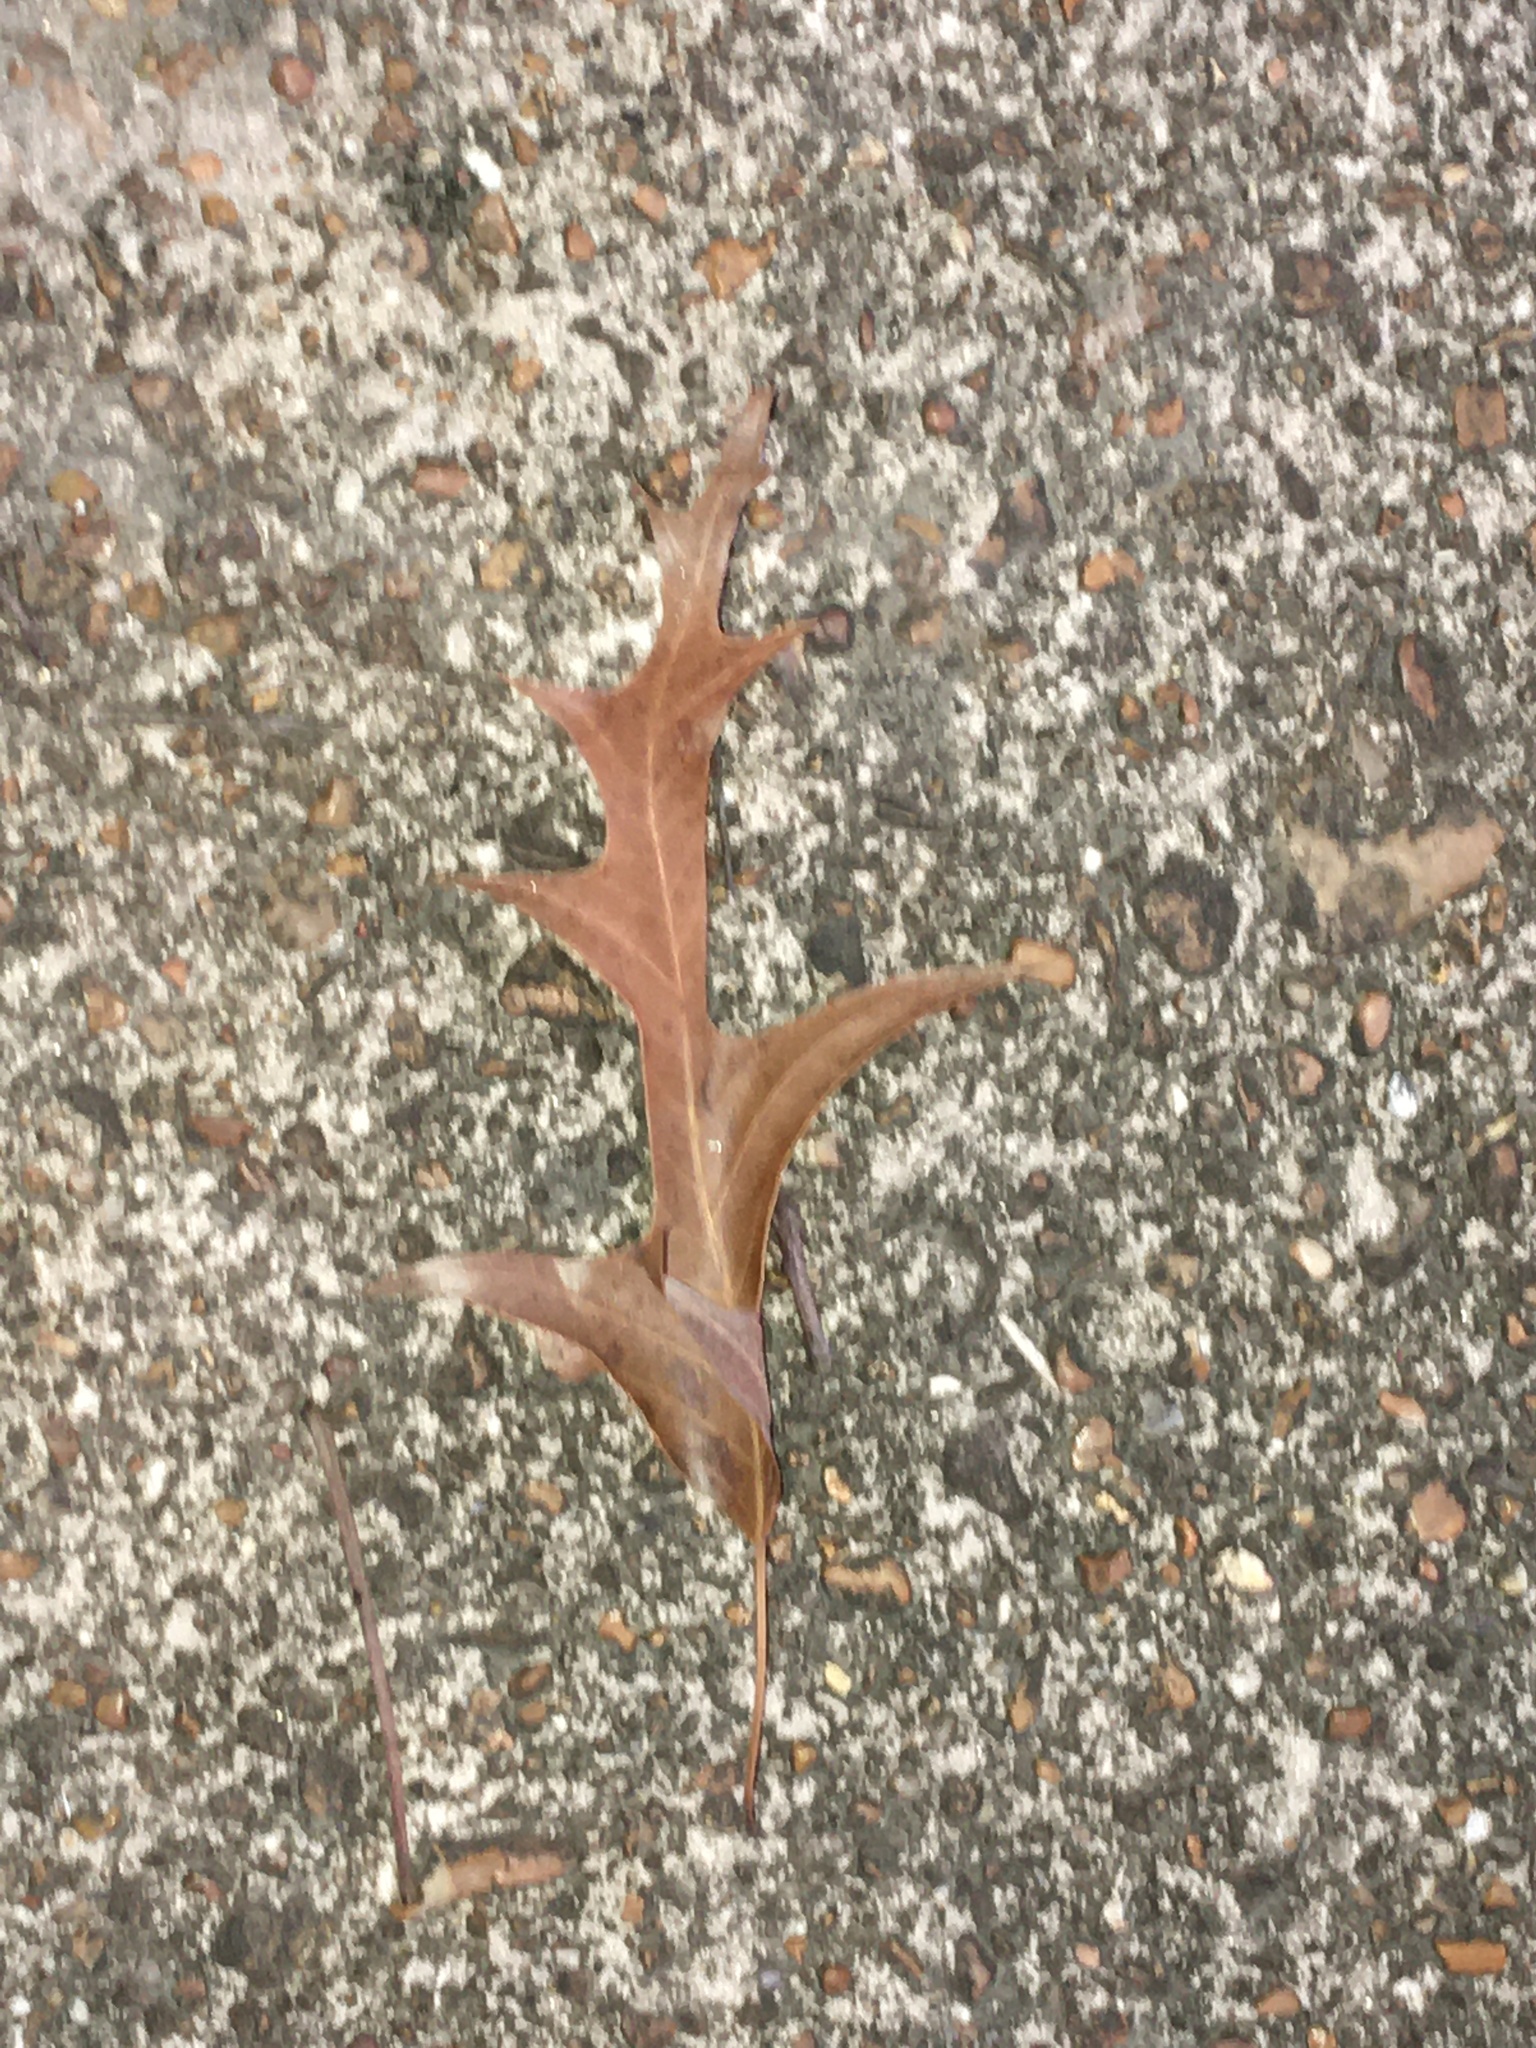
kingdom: Plantae
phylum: Tracheophyta
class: Magnoliopsida
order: Fagales
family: Fagaceae
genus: Quercus
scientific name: Quercus falcata
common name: Southern red oak
